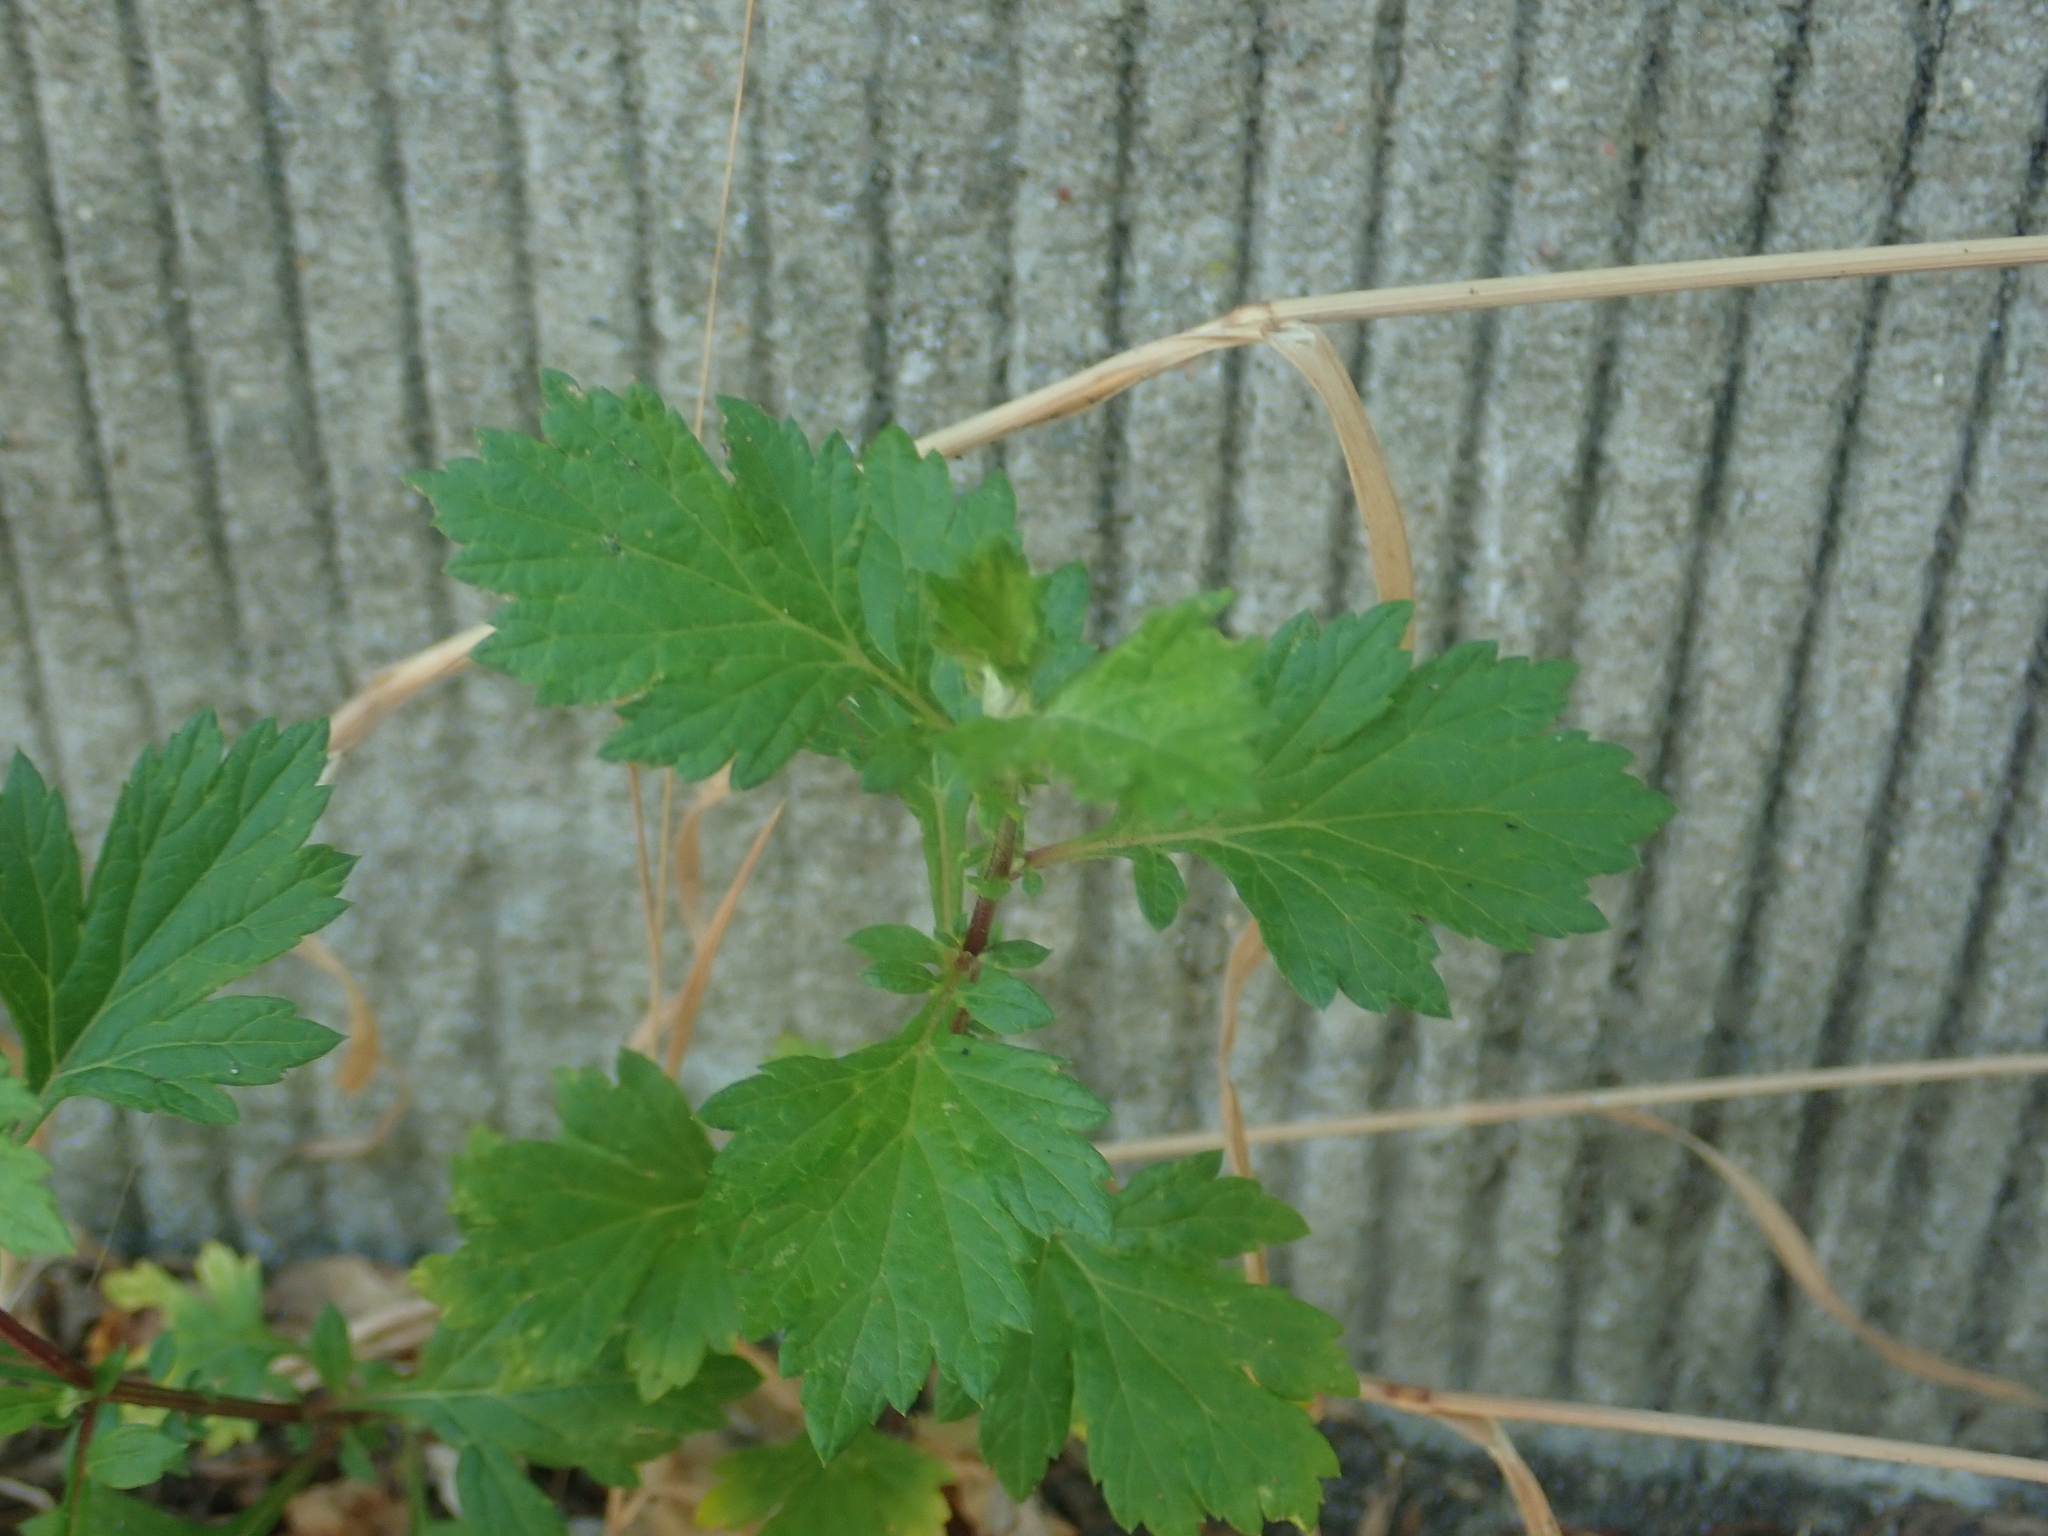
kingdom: Plantae
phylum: Tracheophyta
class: Magnoliopsida
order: Asterales
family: Asteraceae
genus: Artemisia
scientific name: Artemisia vulgaris
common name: Mugwort
